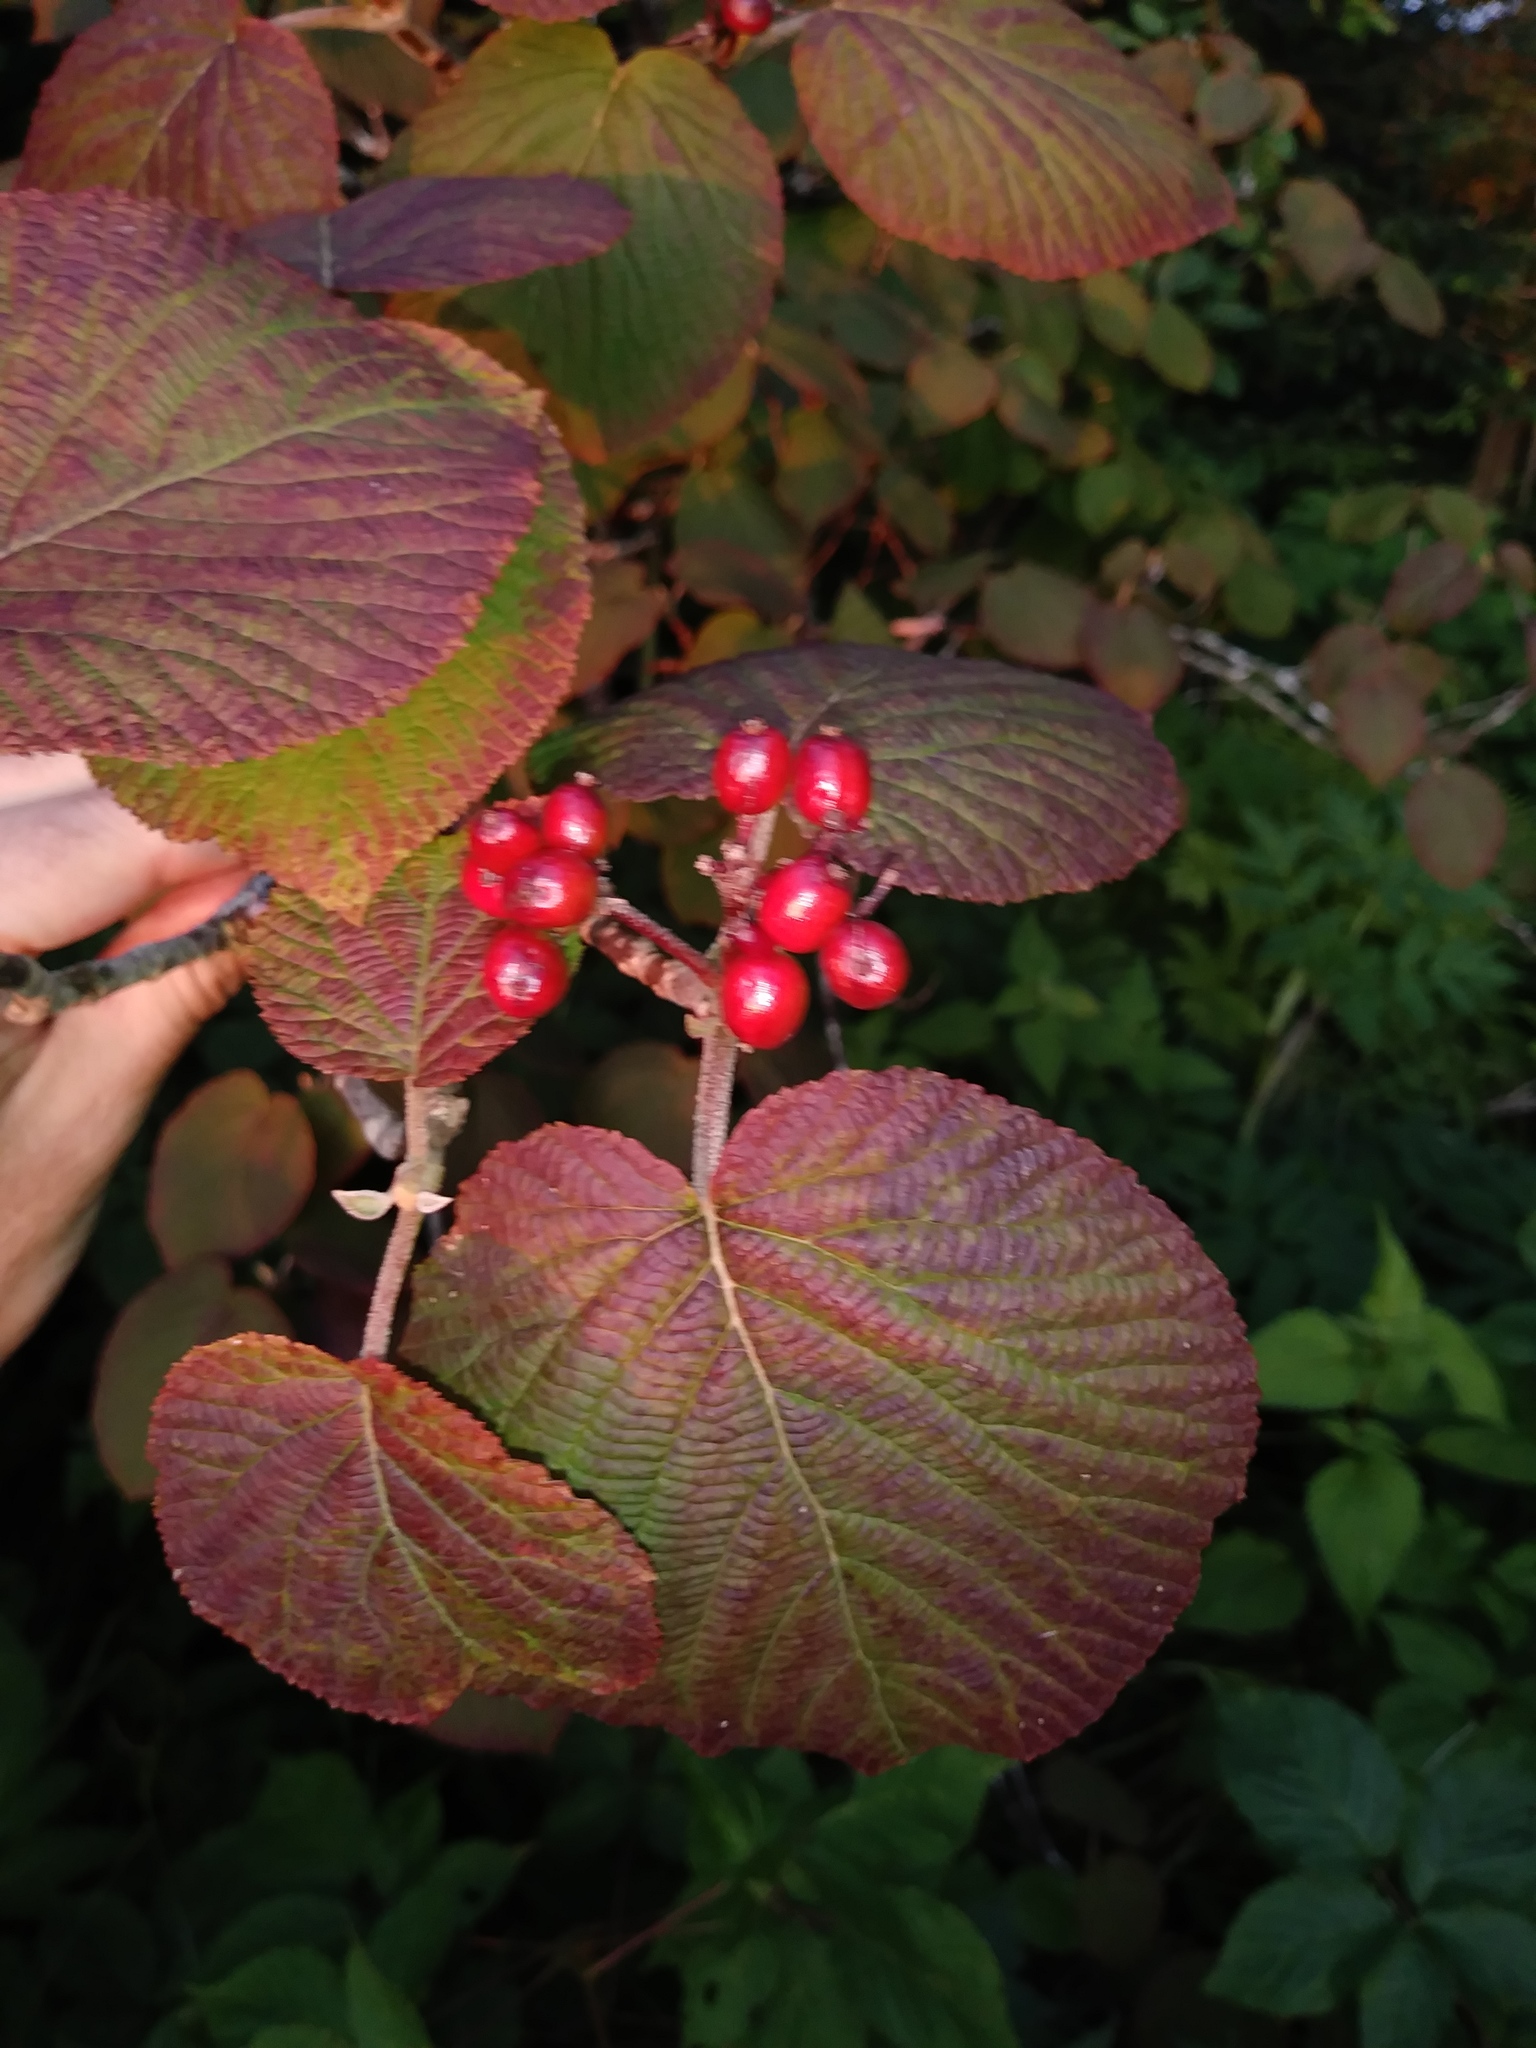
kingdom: Plantae
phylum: Tracheophyta
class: Magnoliopsida
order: Dipsacales
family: Viburnaceae
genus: Viburnum
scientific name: Viburnum lantanoides
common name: Hobblebush
